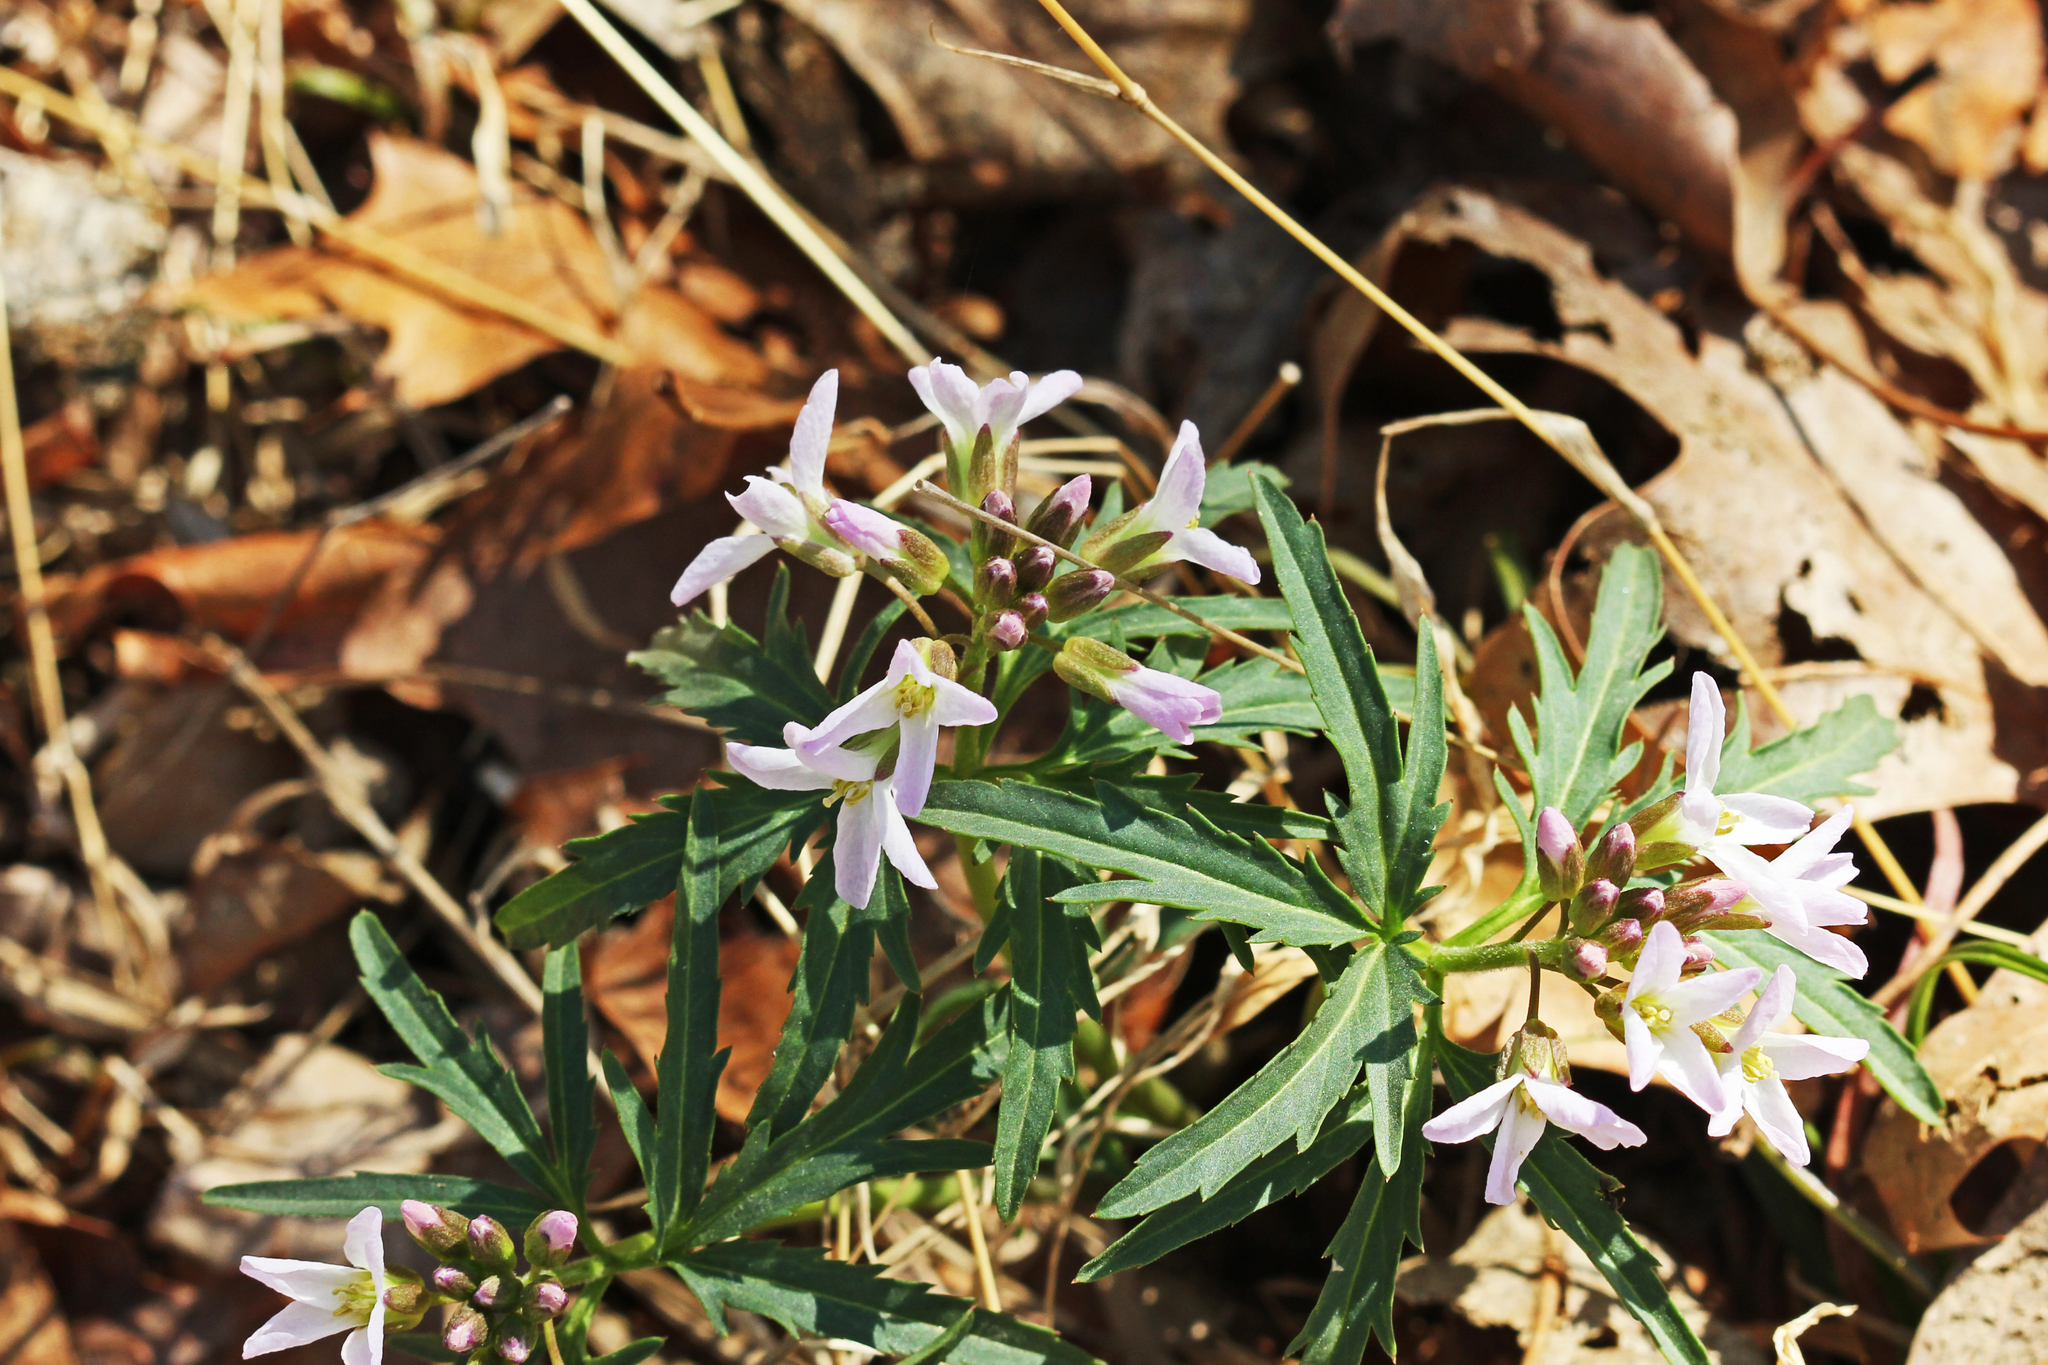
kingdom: Plantae
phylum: Tracheophyta
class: Magnoliopsida
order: Brassicales
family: Brassicaceae
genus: Cardamine
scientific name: Cardamine concatenata
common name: Cut-leaf toothcup
